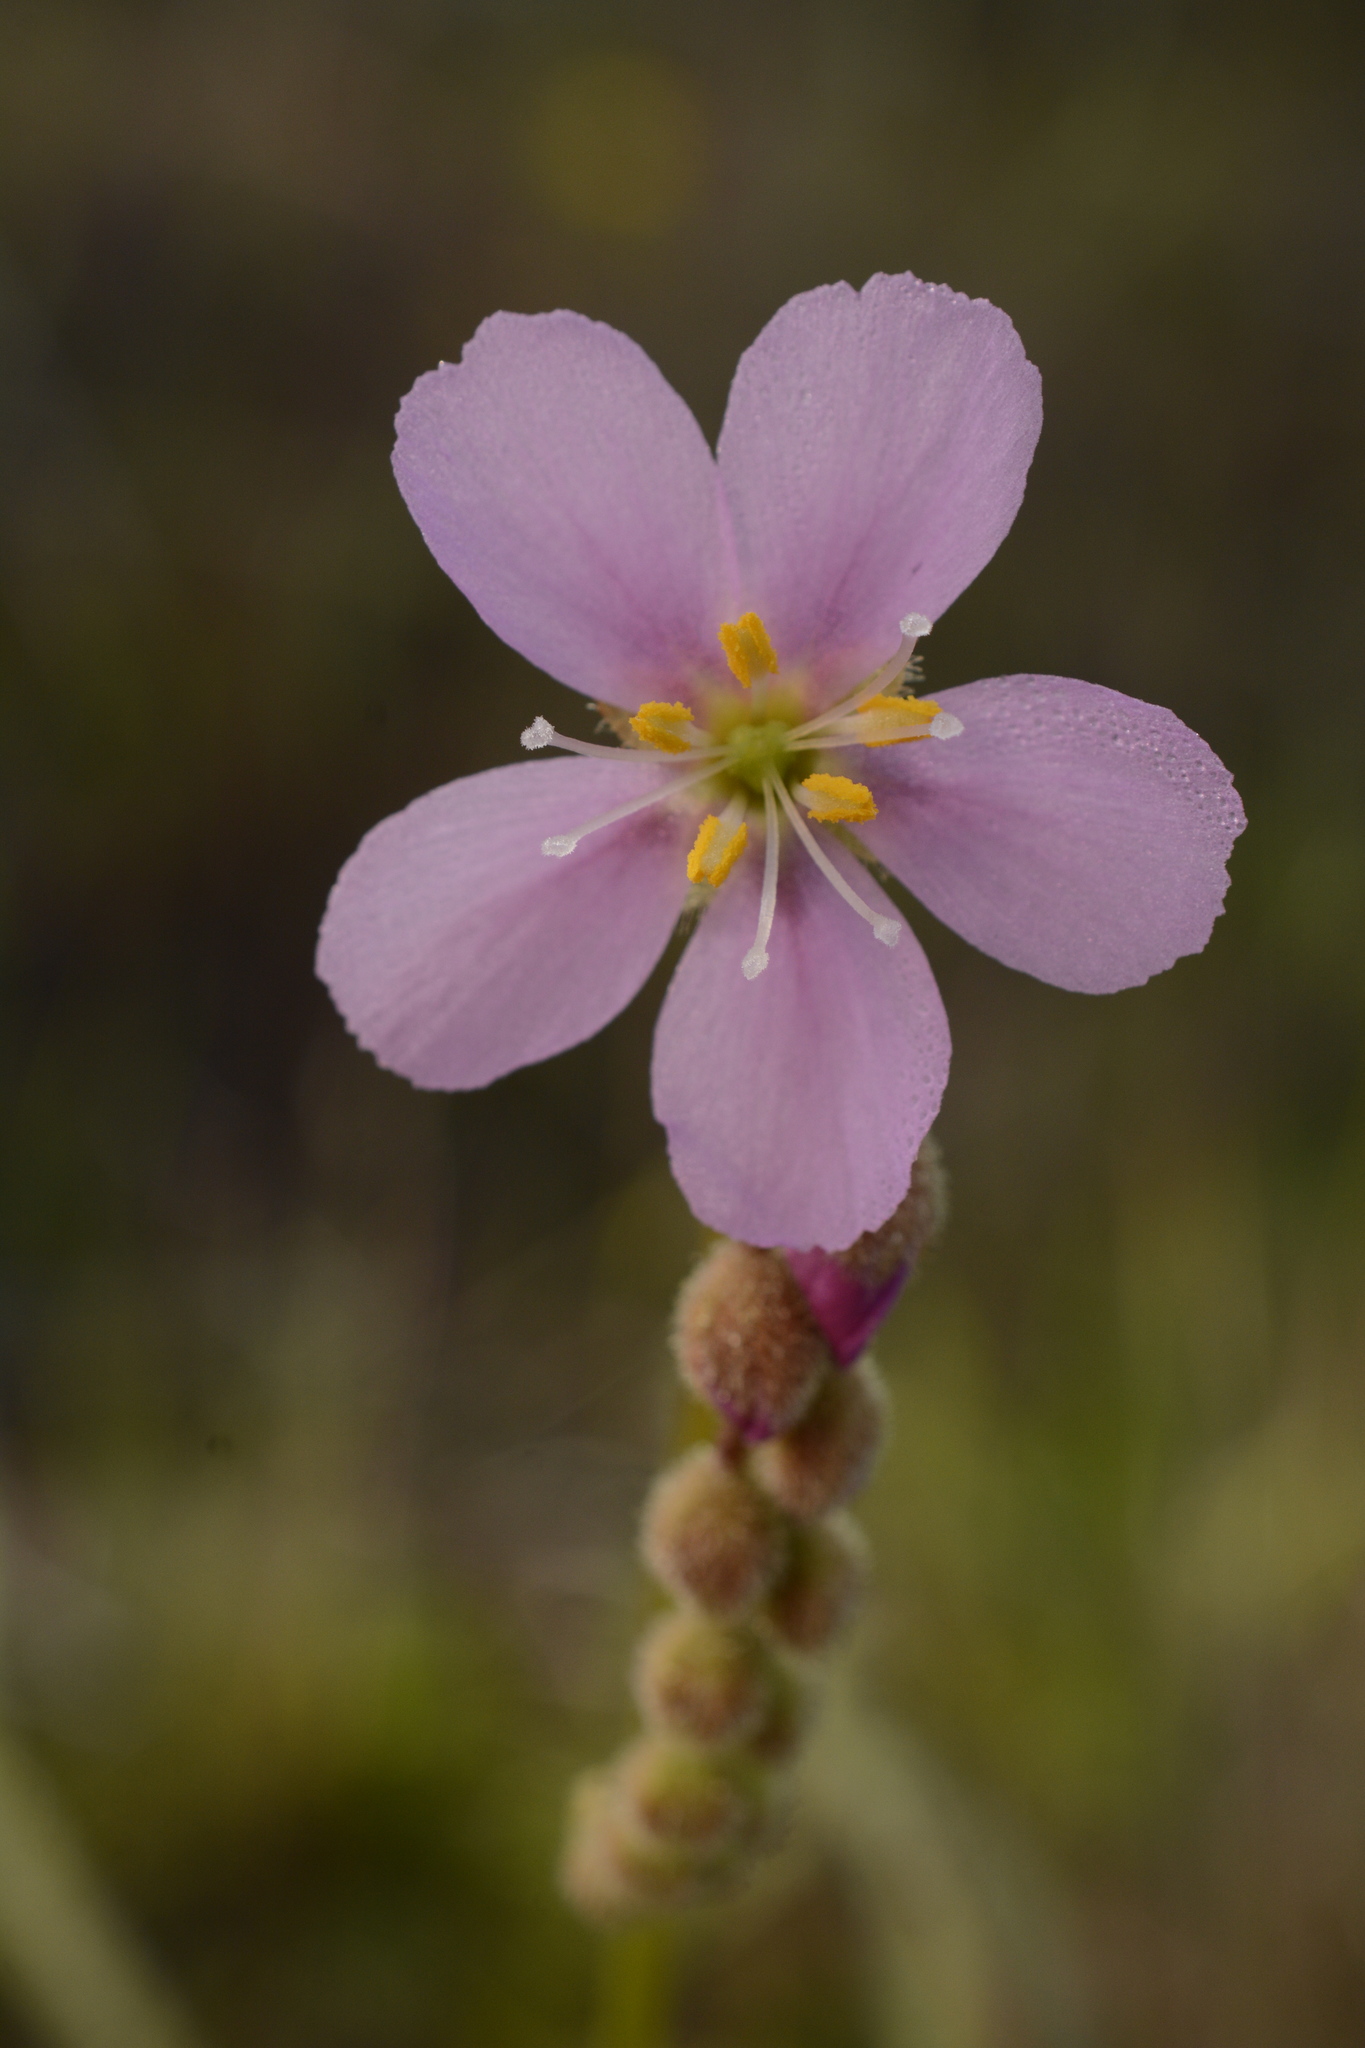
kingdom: Plantae
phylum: Tracheophyta
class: Magnoliopsida
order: Caryophyllales
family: Droseraceae
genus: Drosera
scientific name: Drosera filiformis
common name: Dew-thread
